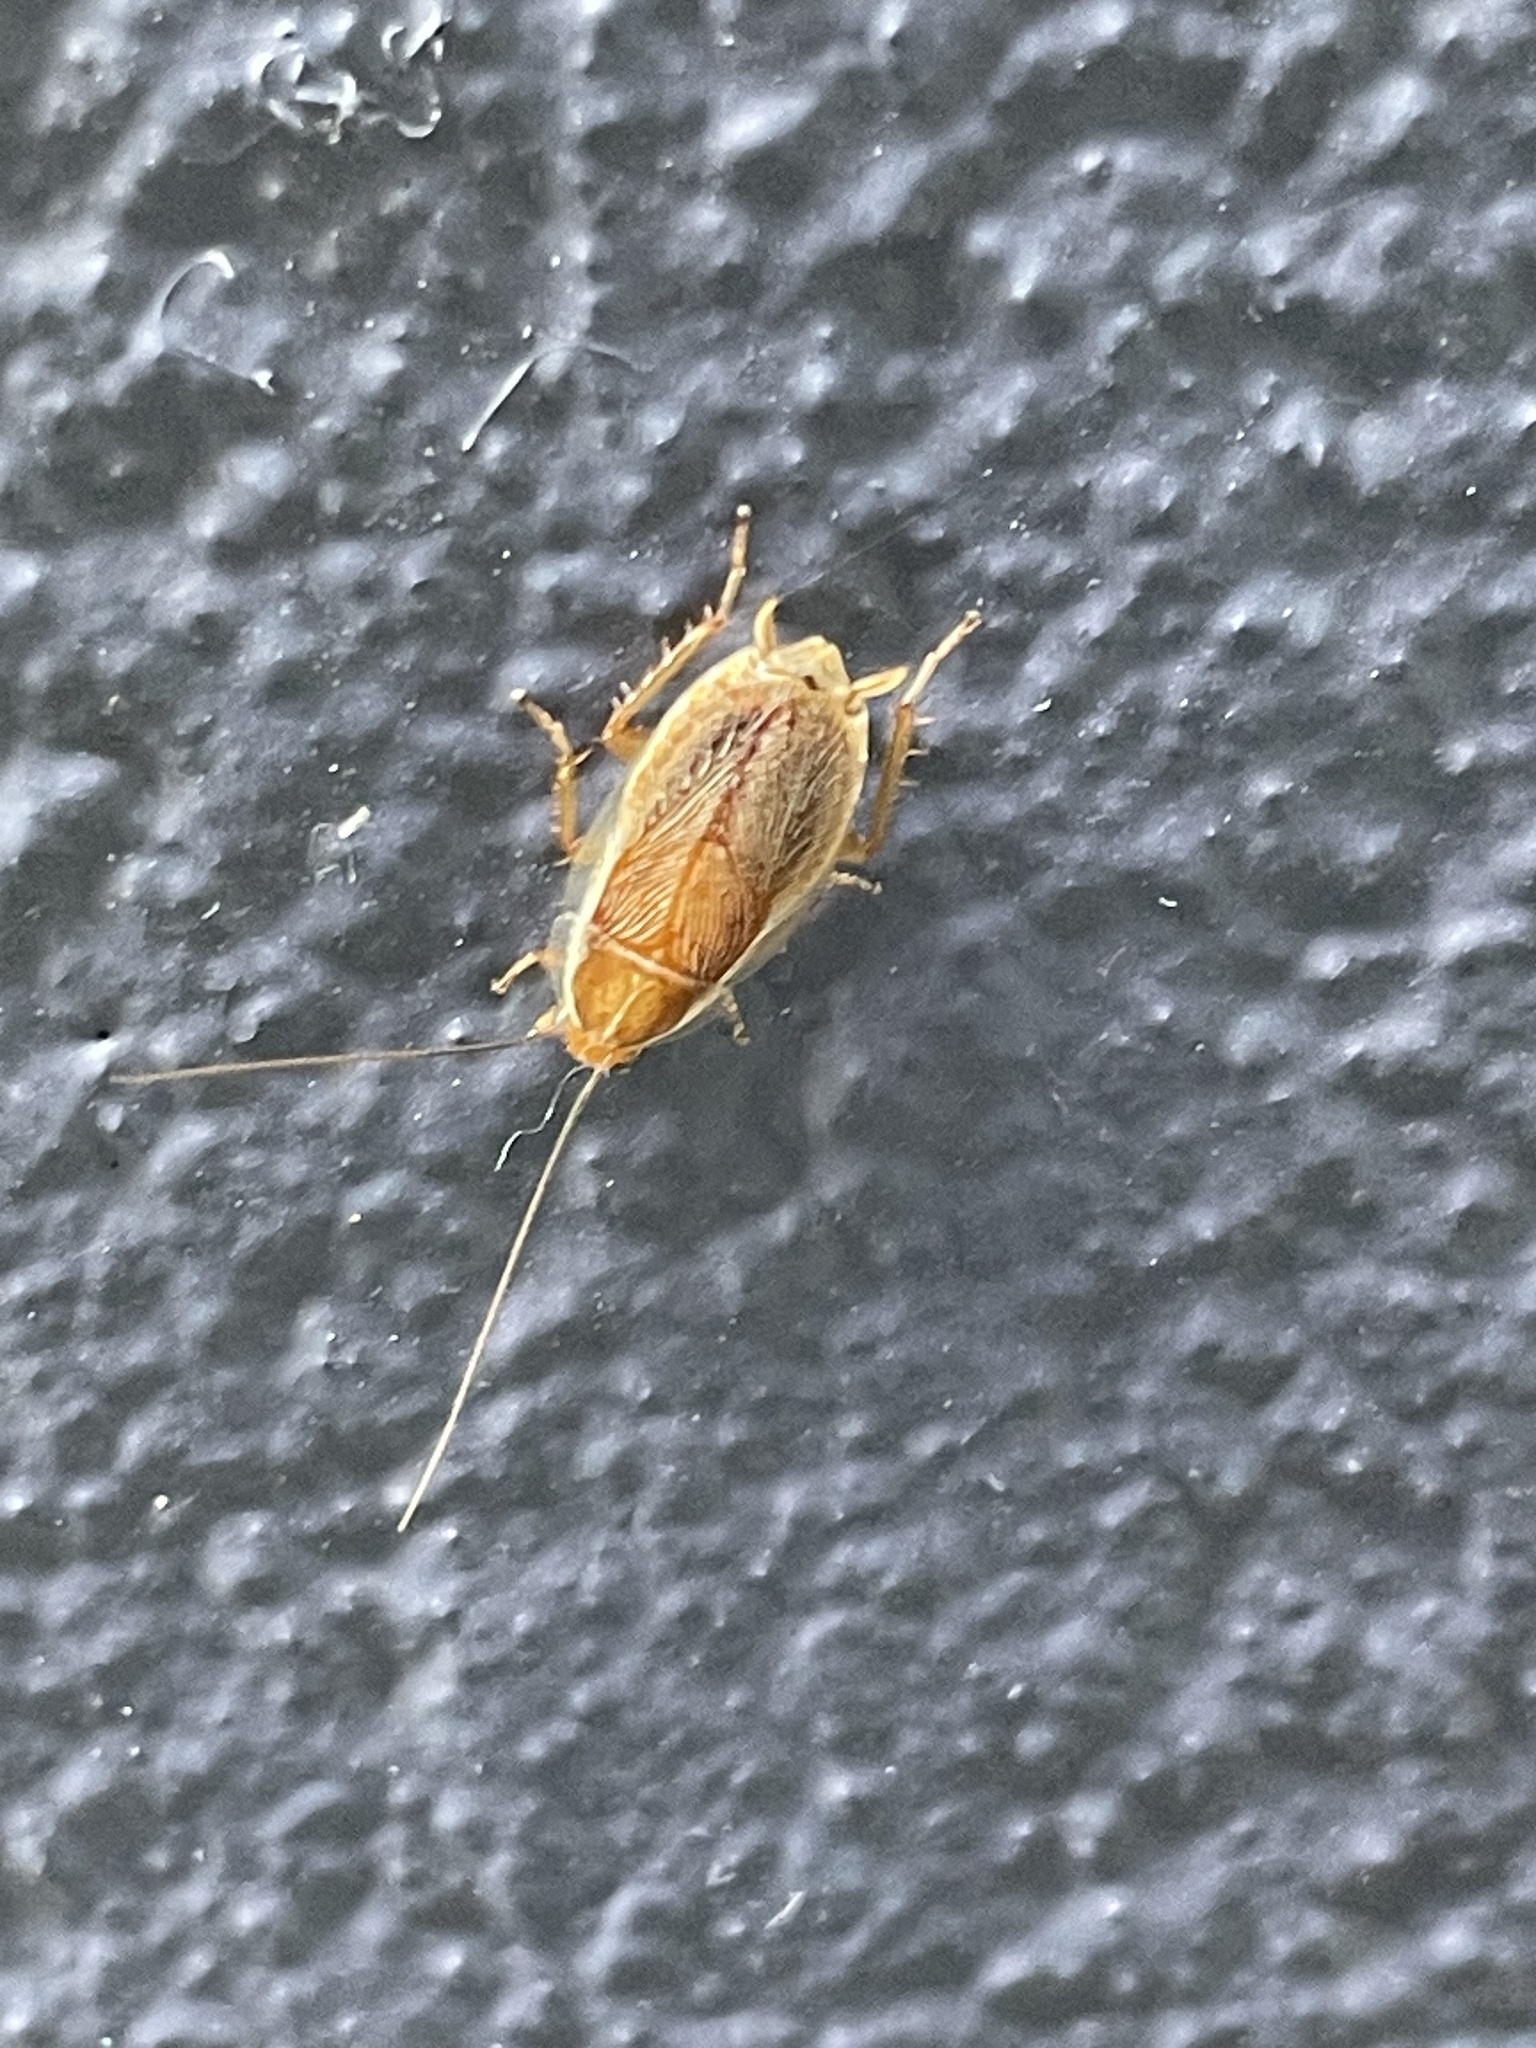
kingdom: Animalia
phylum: Arthropoda
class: Insecta
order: Blattodea
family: Ectobiidae
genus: Balta
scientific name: Balta spuria
